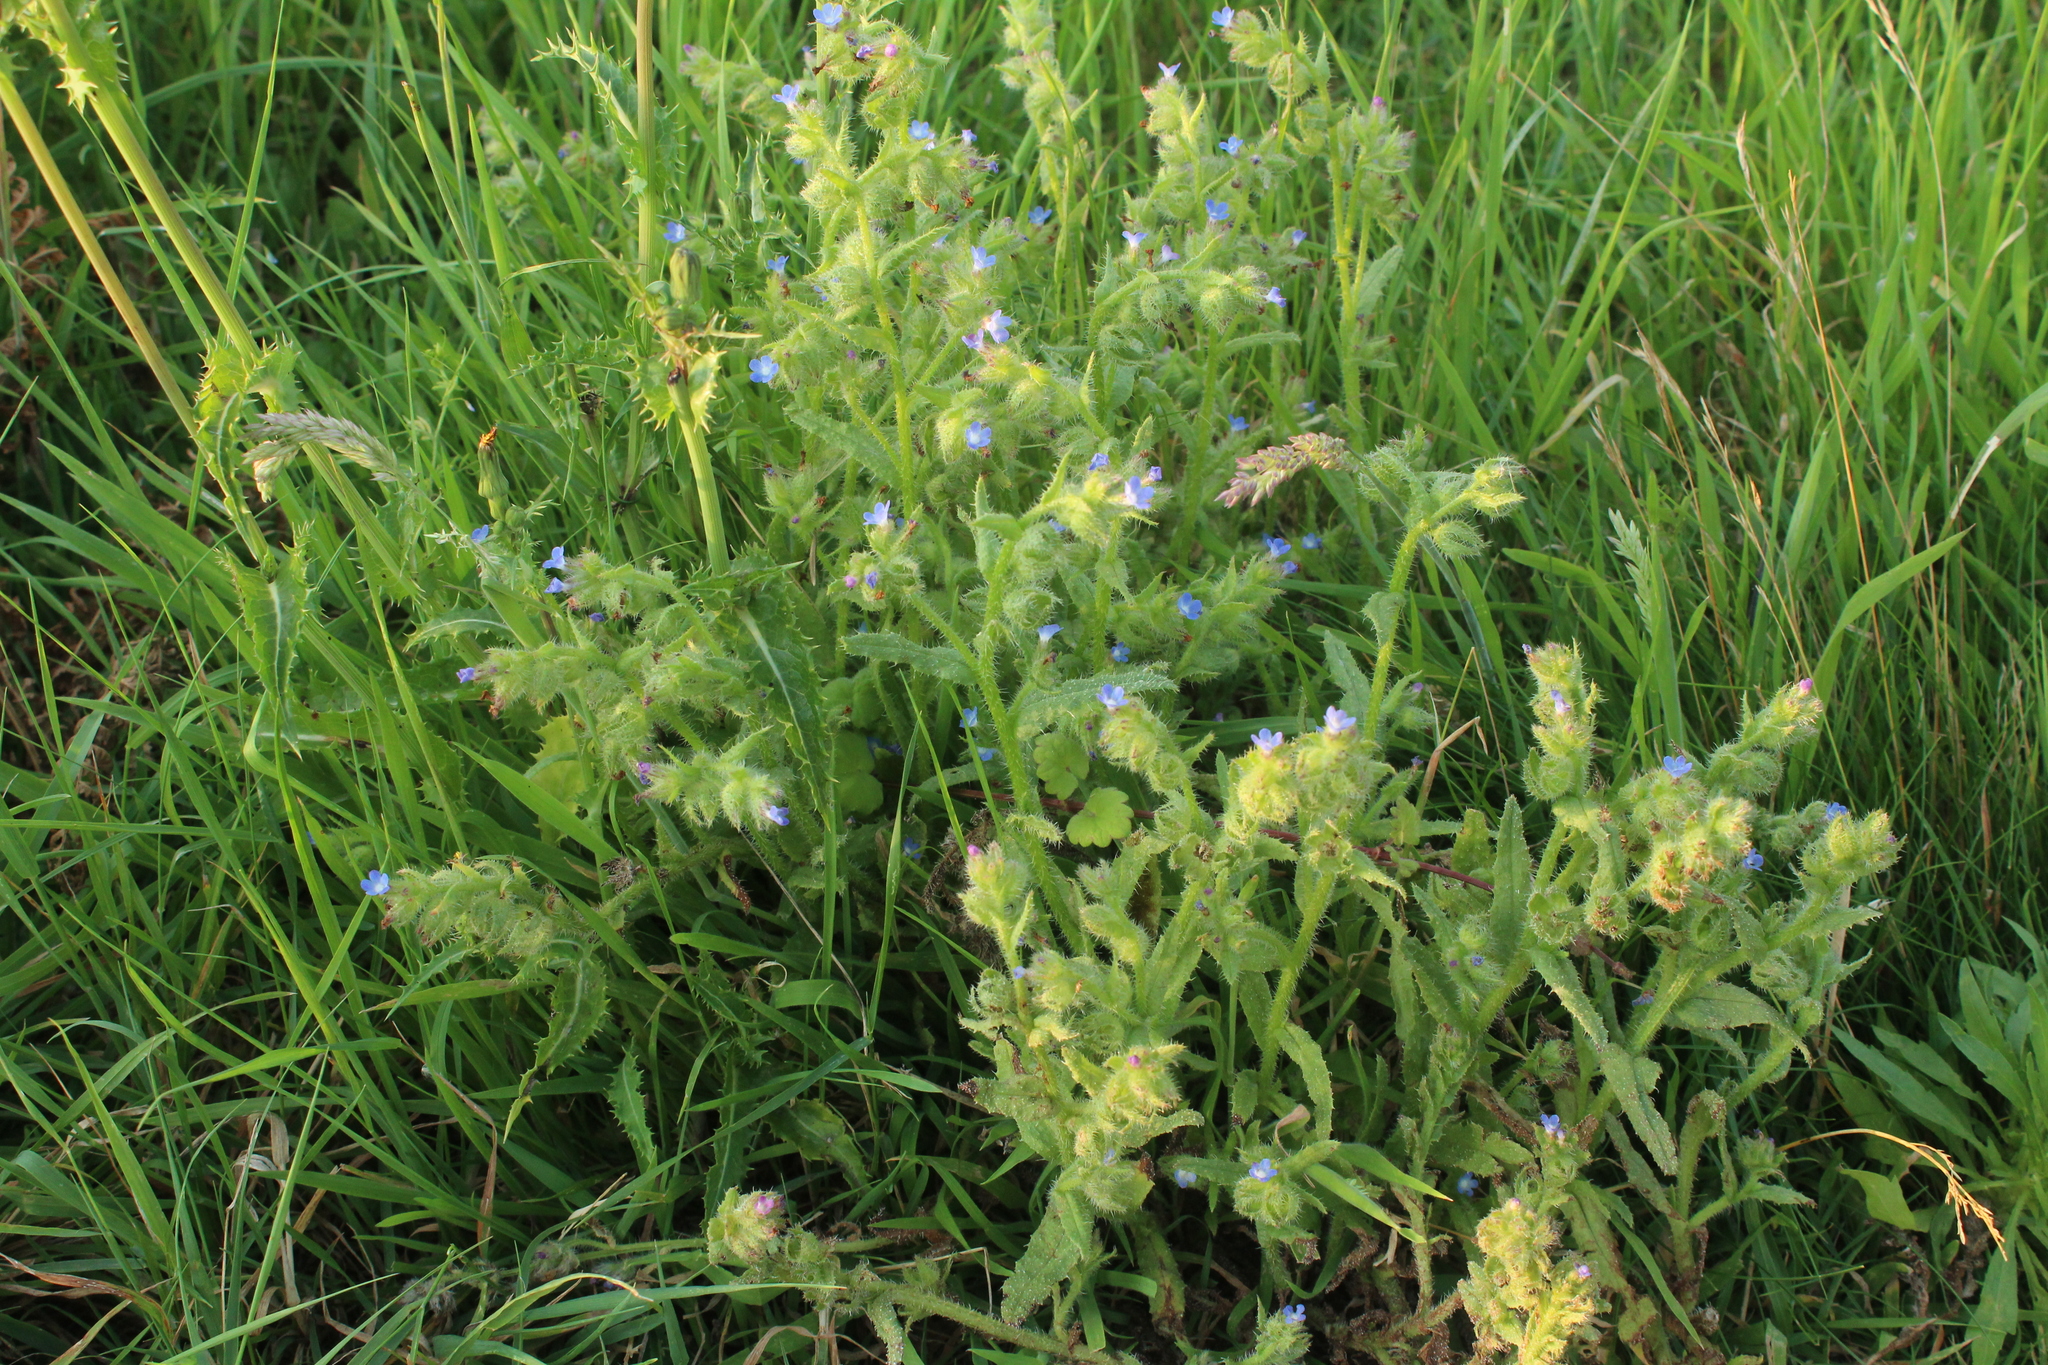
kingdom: Plantae
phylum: Tracheophyta
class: Magnoliopsida
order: Boraginales
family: Boraginaceae
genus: Lycopsis
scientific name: Lycopsis arvensis
